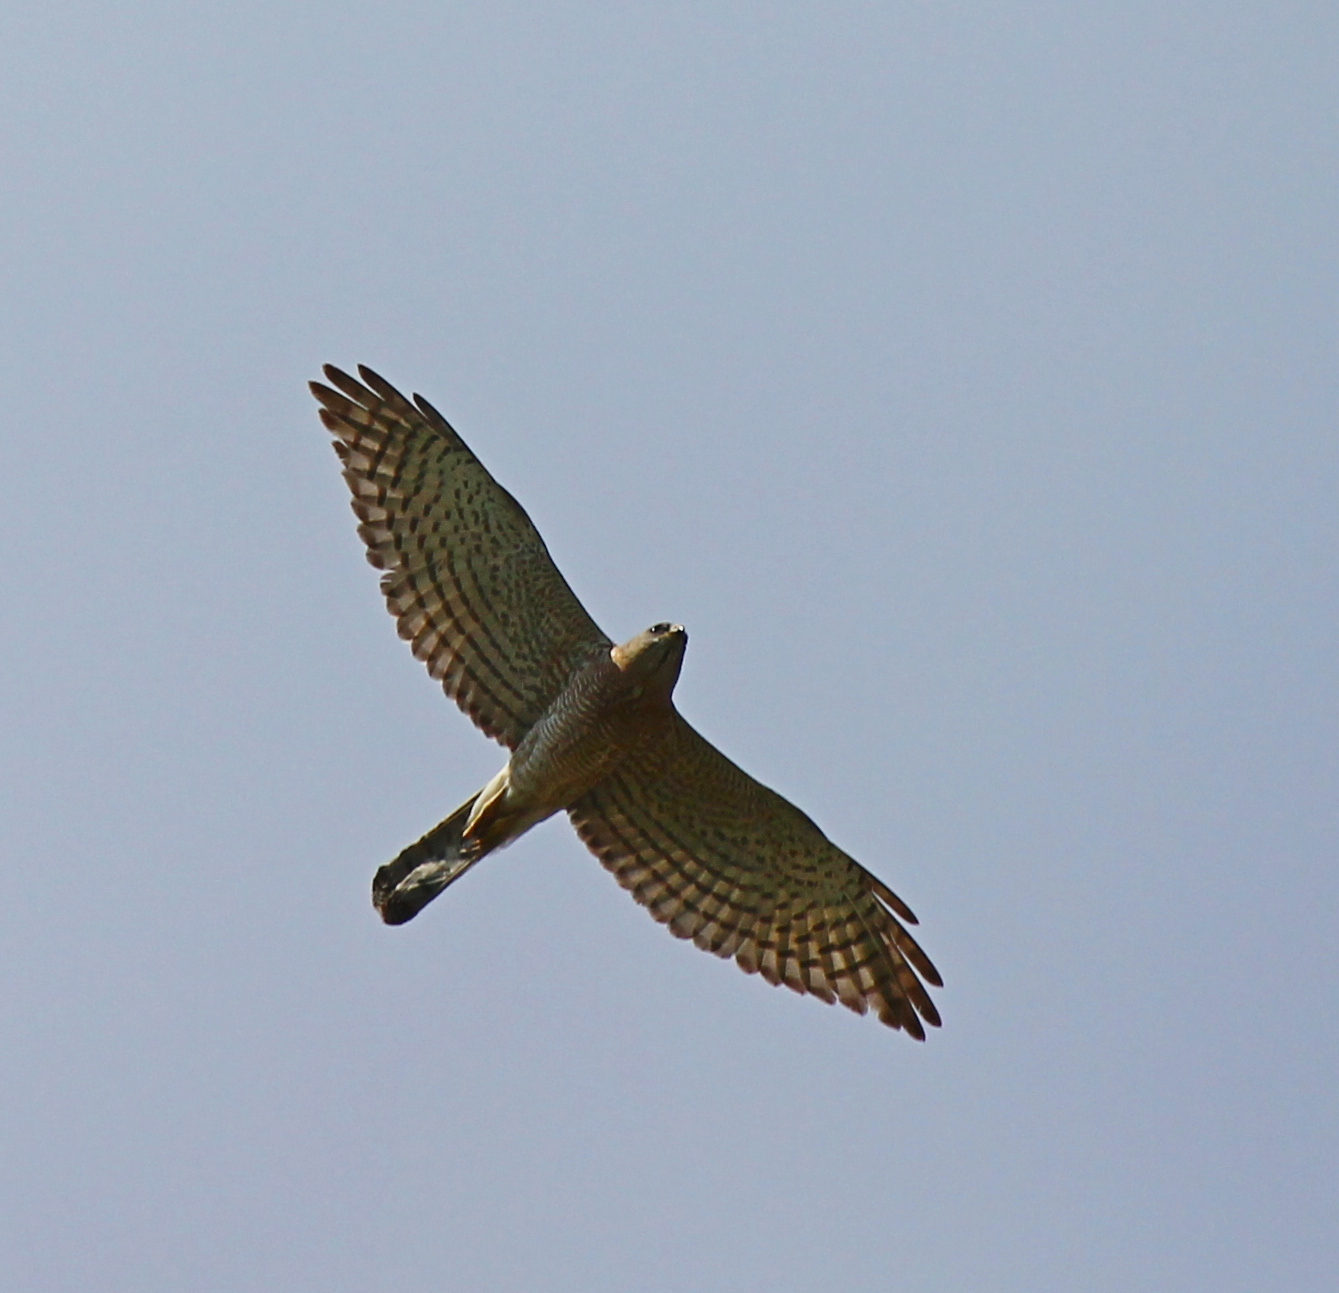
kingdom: Animalia
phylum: Chordata
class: Aves
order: Accipitriformes
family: Accipitridae
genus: Accipiter
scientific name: Accipiter brevipes
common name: Levant sparrowhawk
